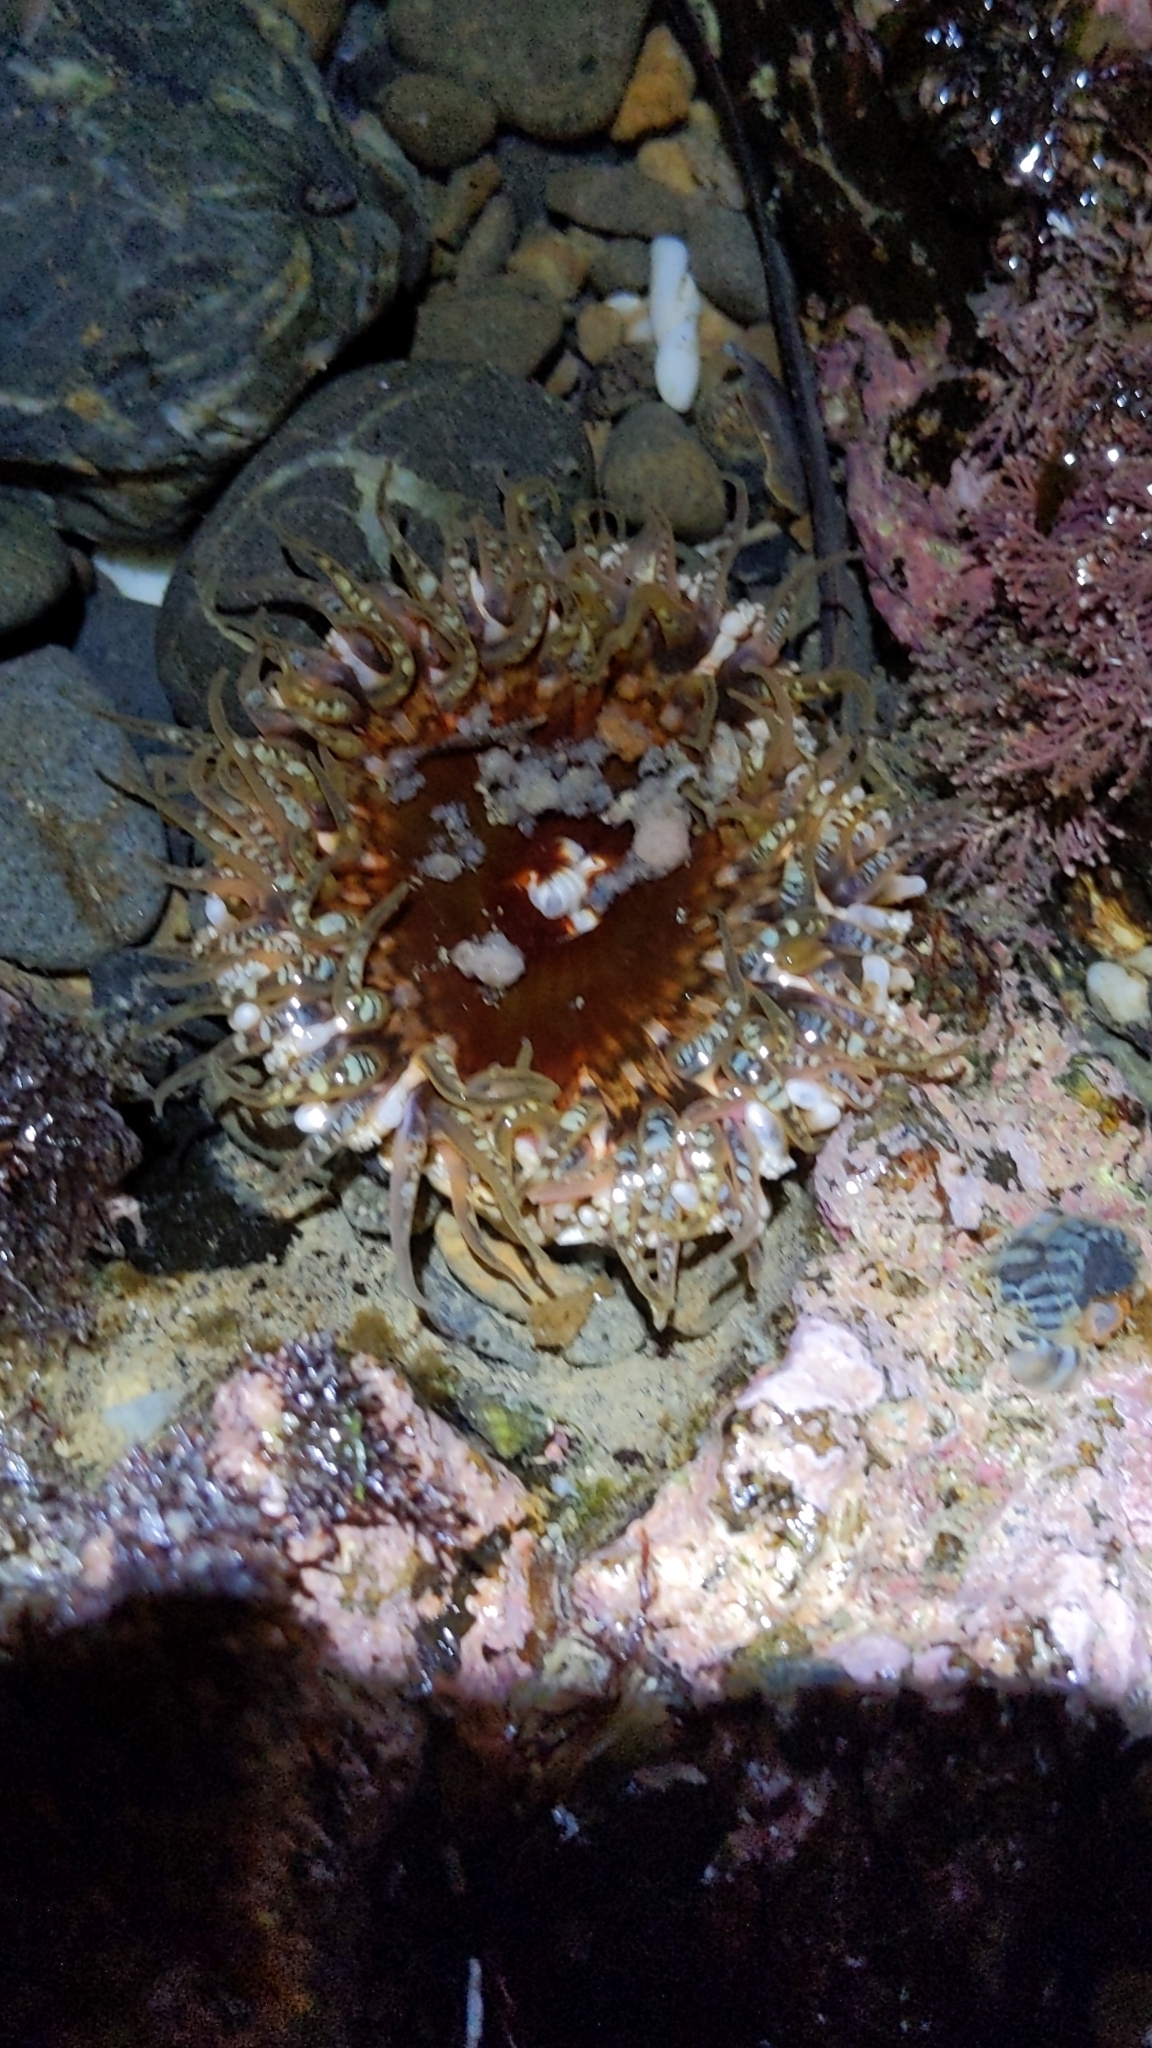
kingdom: Animalia
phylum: Cnidaria
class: Anthozoa
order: Actiniaria
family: Actiniidae
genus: Oulactis
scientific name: Oulactis muscosa
